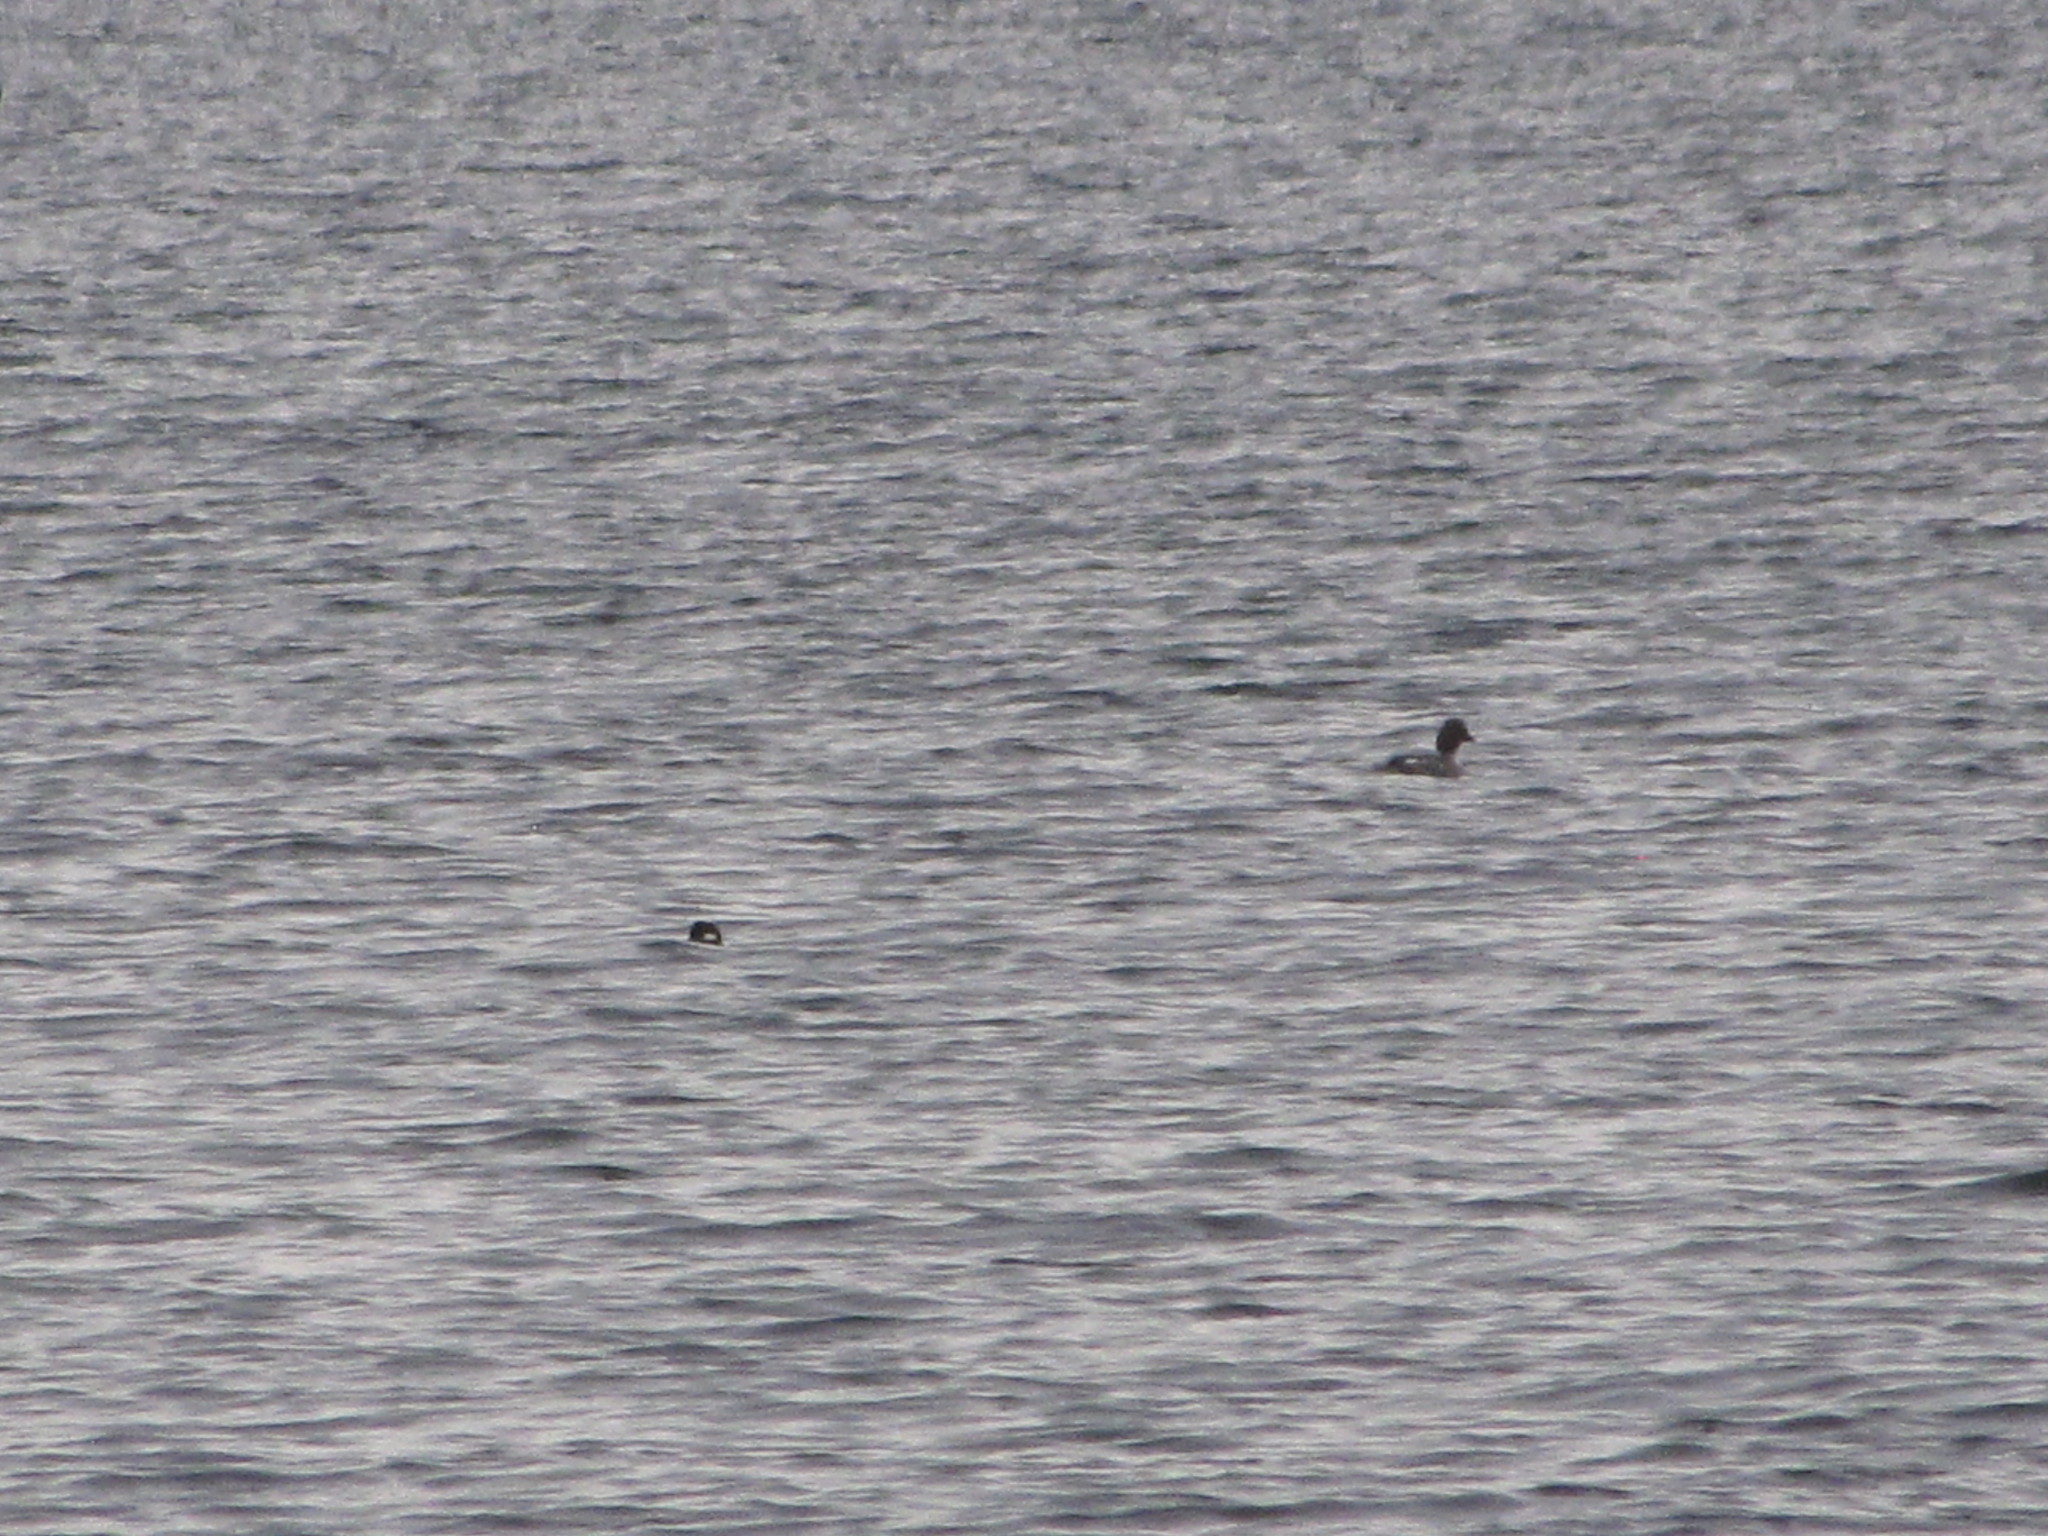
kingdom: Animalia
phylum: Chordata
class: Aves
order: Anseriformes
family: Anatidae
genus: Bucephala
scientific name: Bucephala albeola
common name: Bufflehead
